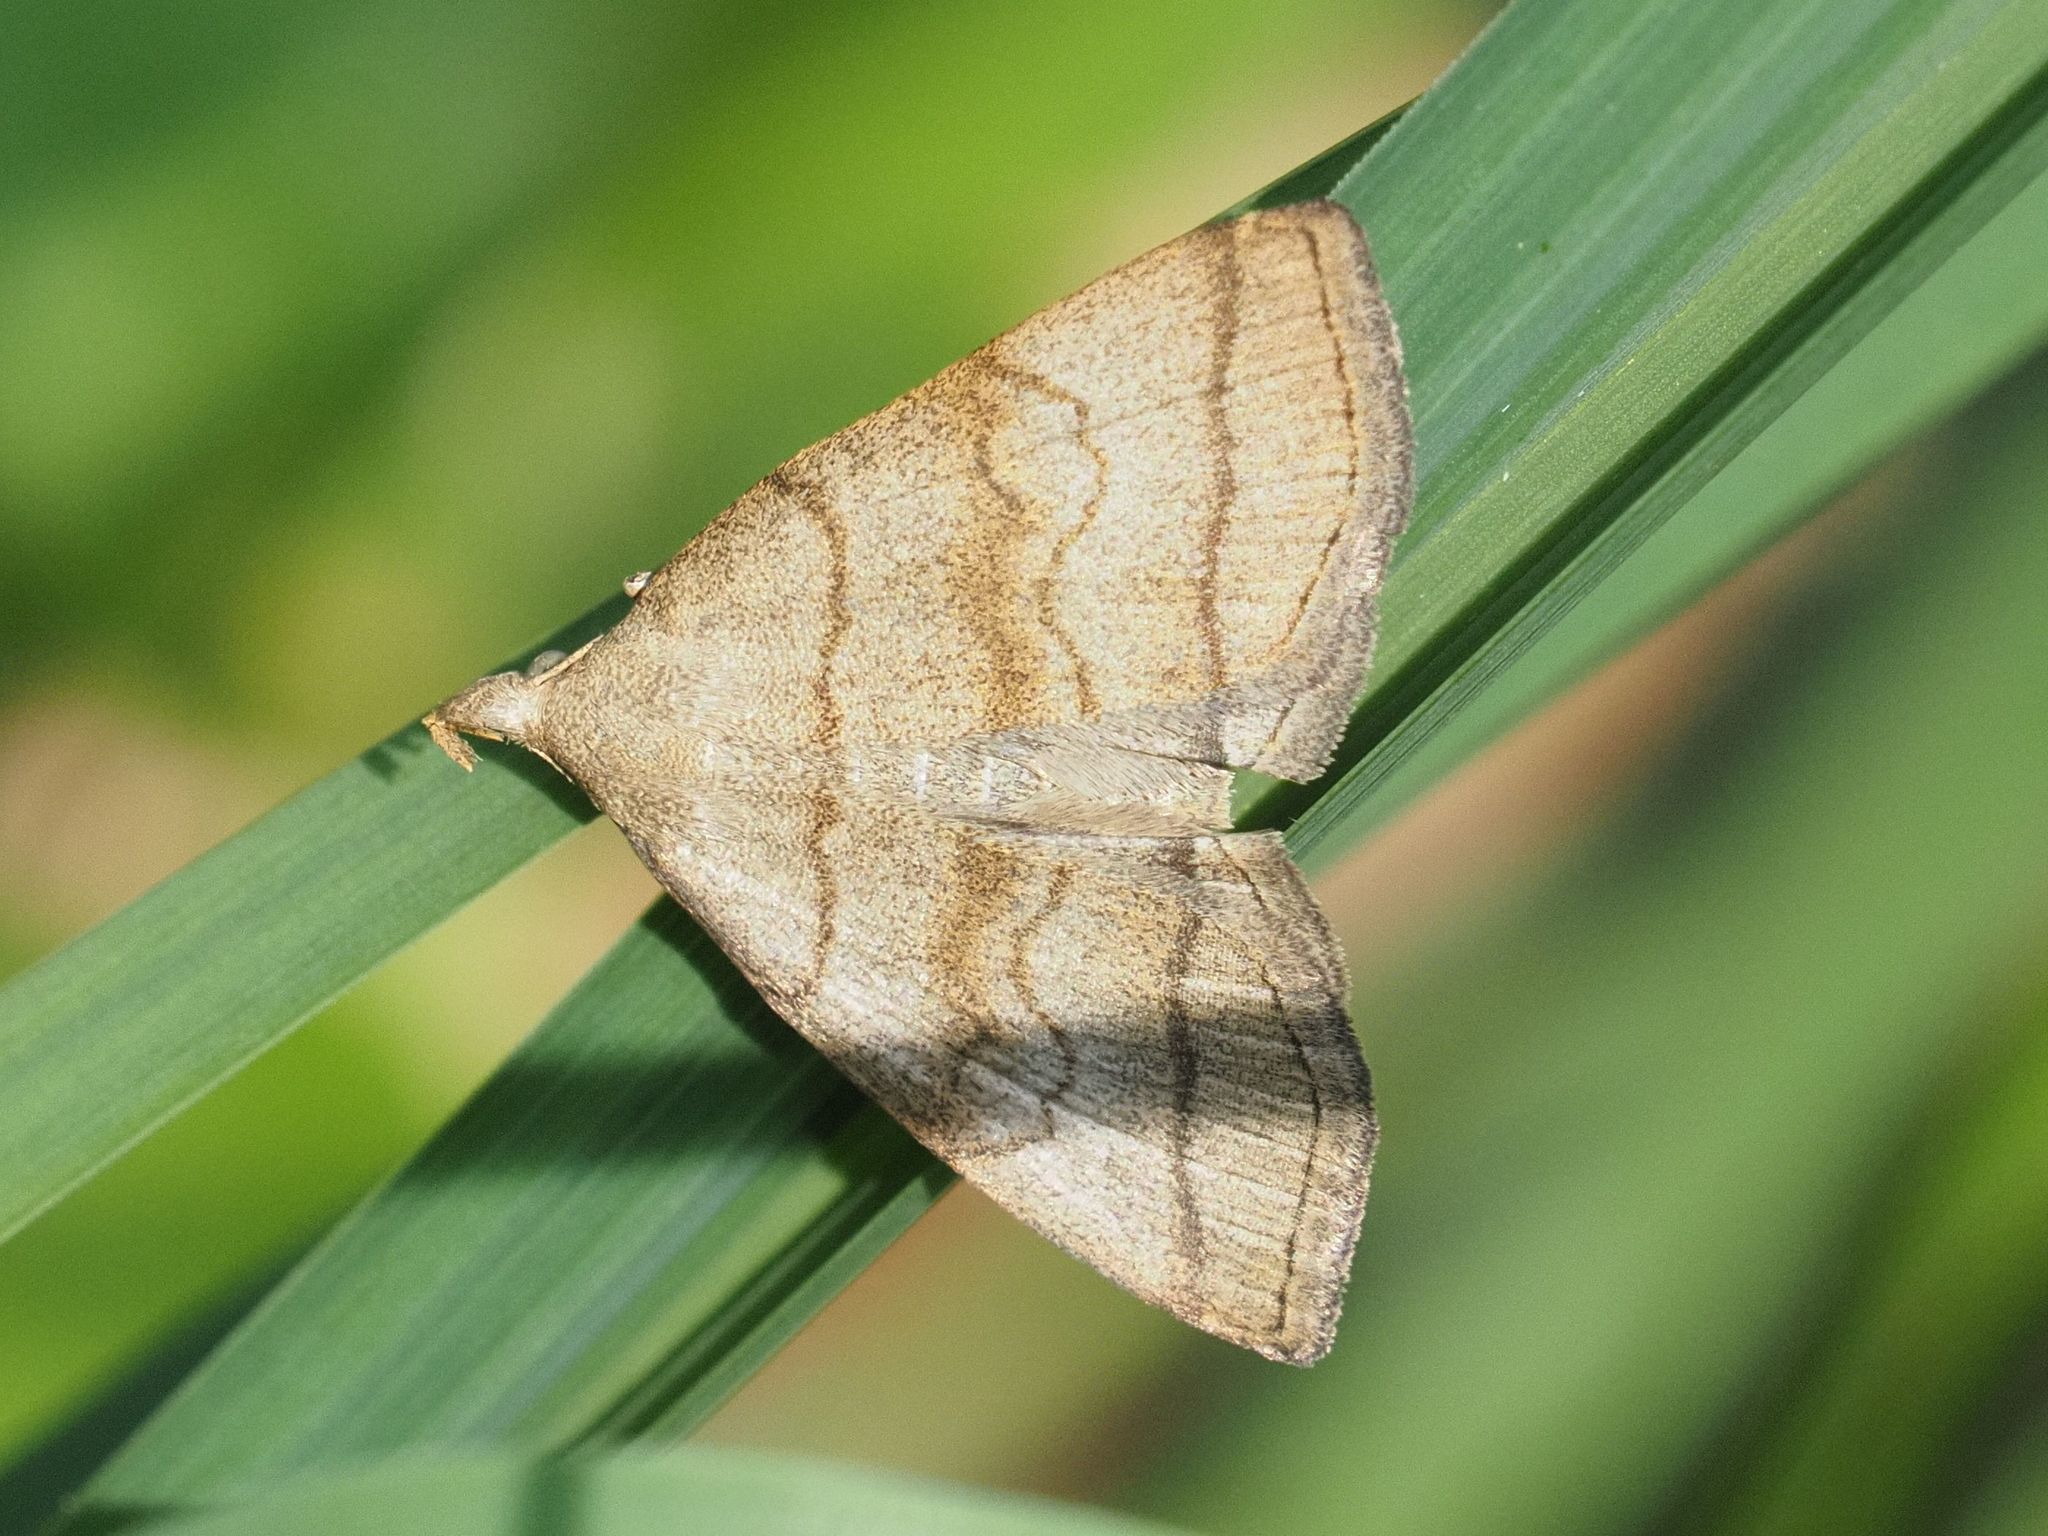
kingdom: Animalia
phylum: Arthropoda
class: Insecta
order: Lepidoptera
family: Erebidae
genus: Herminia
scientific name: Herminia tarsicrinalis
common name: Shaded fan-foot
